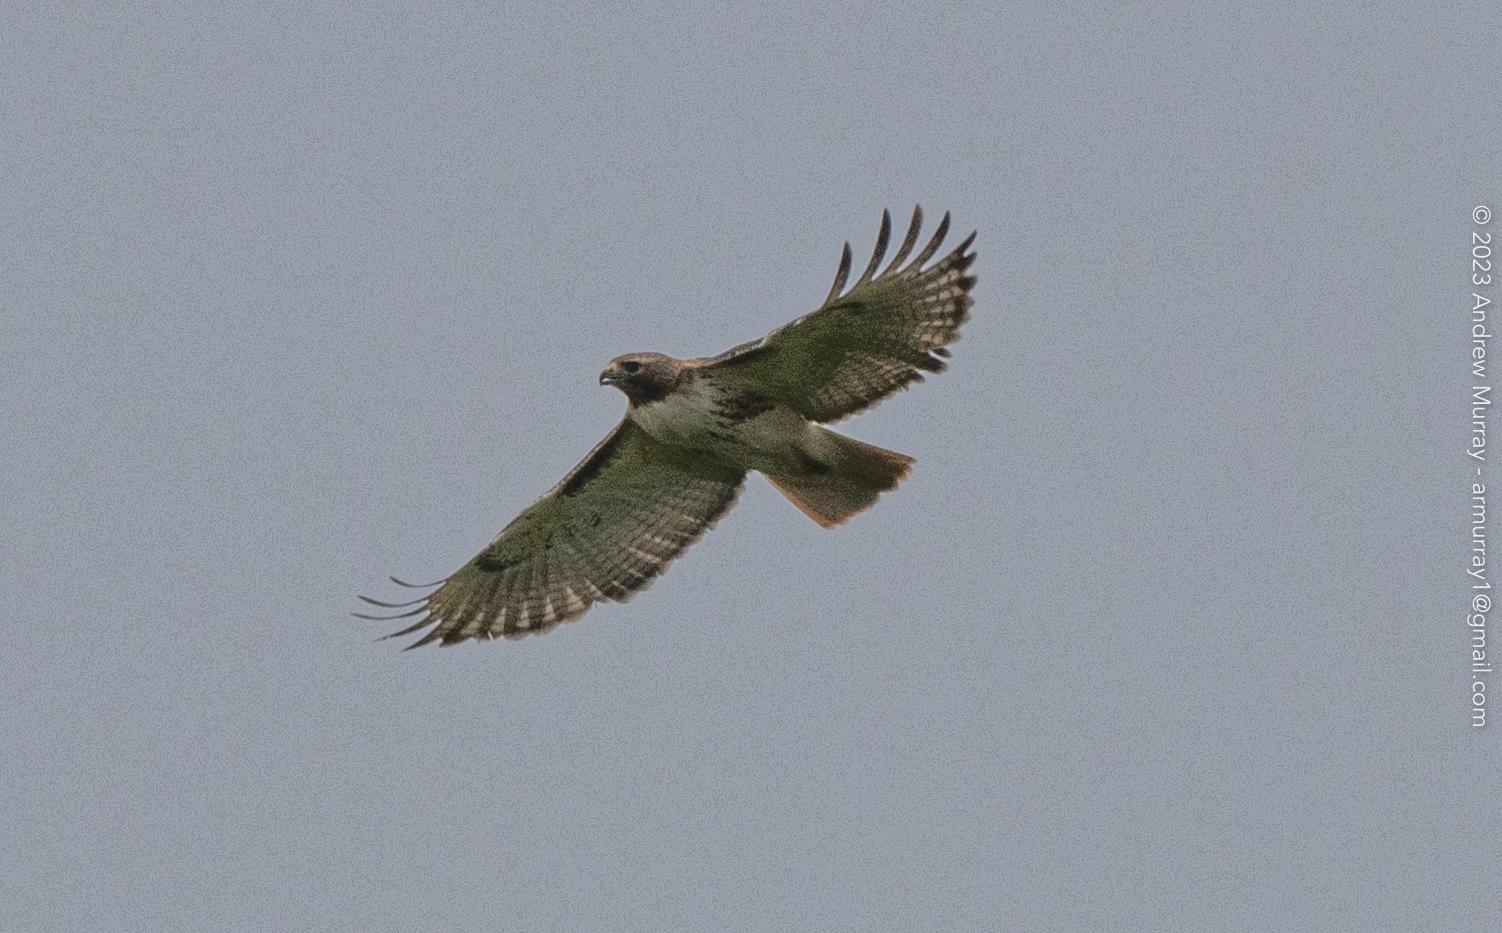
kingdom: Animalia
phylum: Chordata
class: Aves
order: Accipitriformes
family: Accipitridae
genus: Buteo
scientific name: Buteo jamaicensis
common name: Red-tailed hawk
